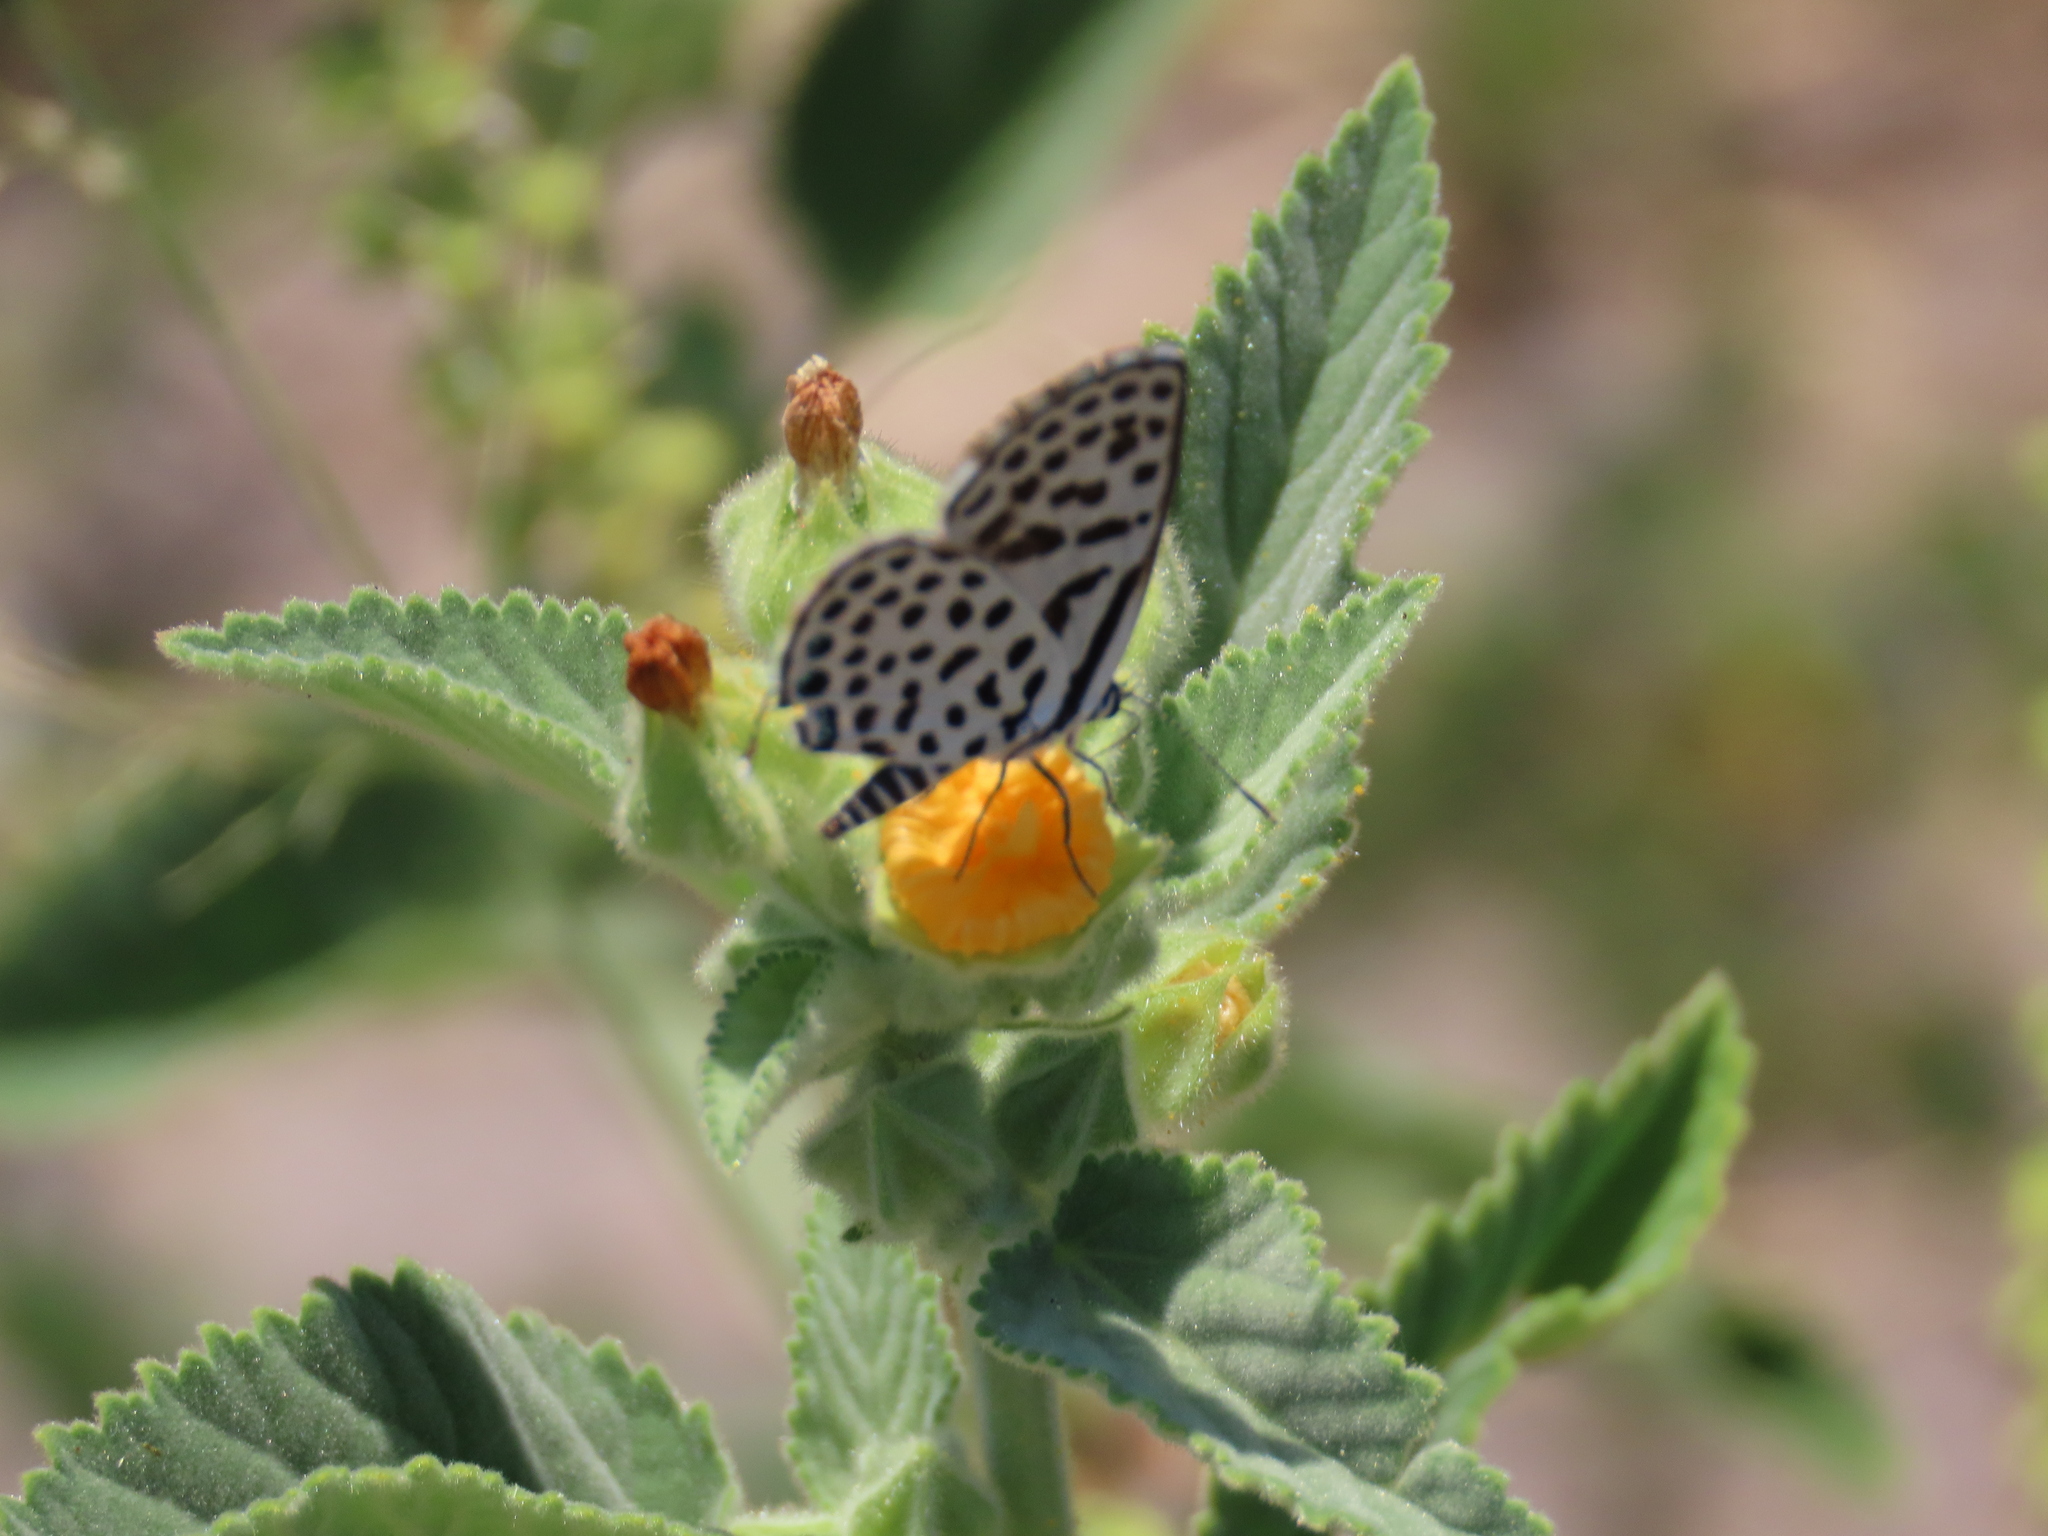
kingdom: Animalia
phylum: Arthropoda
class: Insecta
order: Lepidoptera
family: Lycaenidae
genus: Tarucus
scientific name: Tarucus sybaris
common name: Dotted blue
